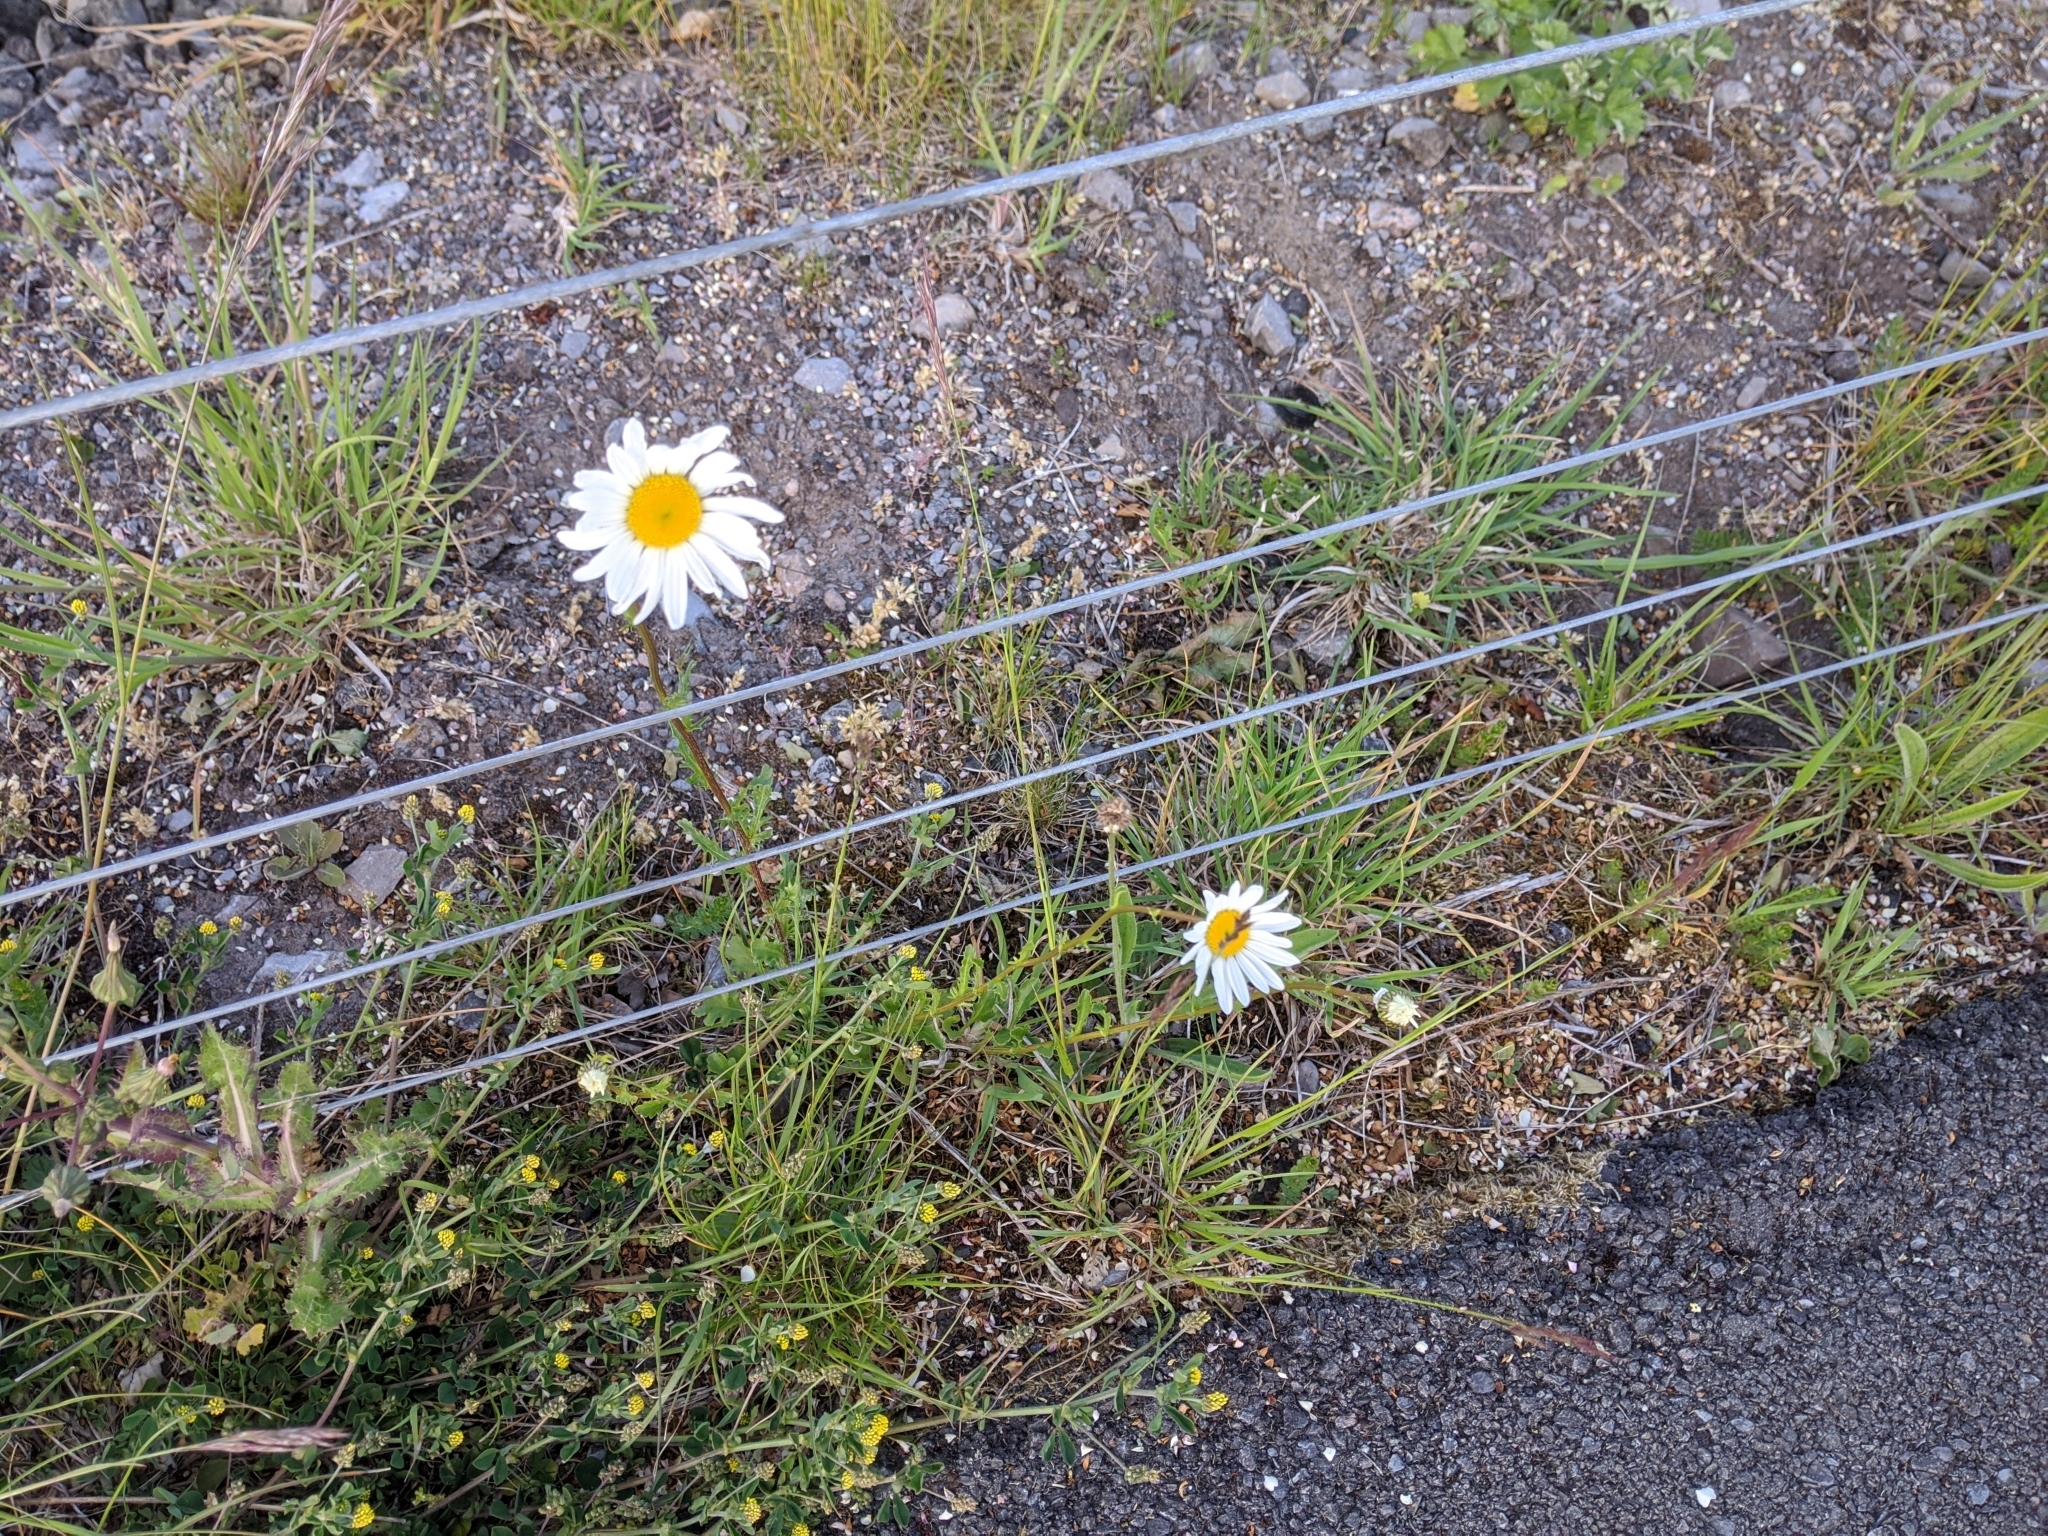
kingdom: Plantae
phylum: Tracheophyta
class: Magnoliopsida
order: Asterales
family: Asteraceae
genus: Leucanthemum
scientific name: Leucanthemum vulgare
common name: Oxeye daisy
